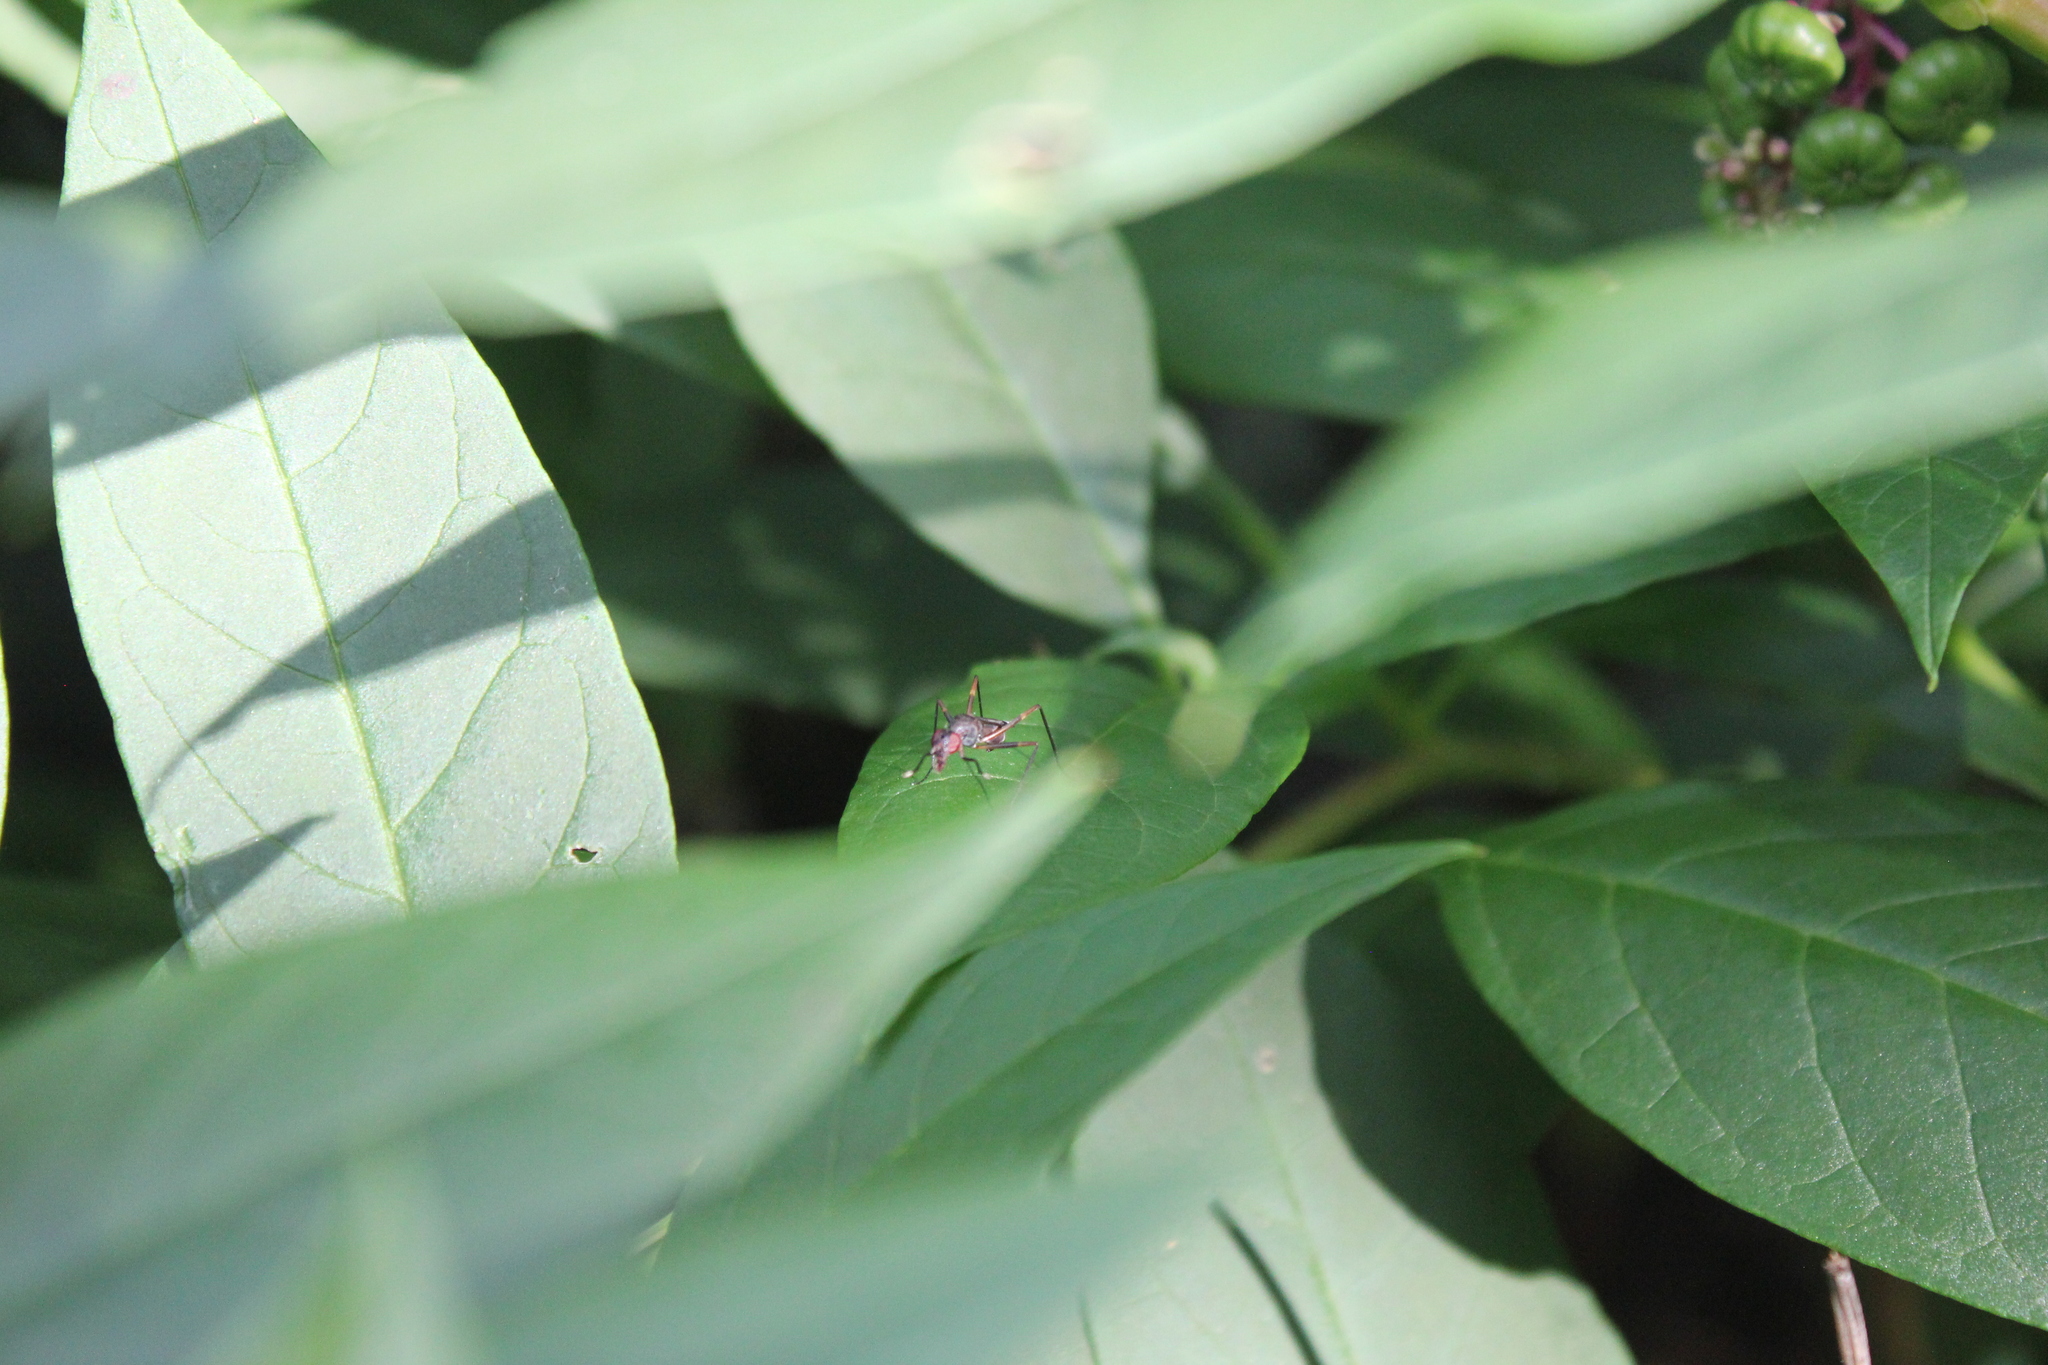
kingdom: Animalia
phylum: Arthropoda
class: Insecta
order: Diptera
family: Micropezidae
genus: Taeniaptera
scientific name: Taeniaptera trivittata
